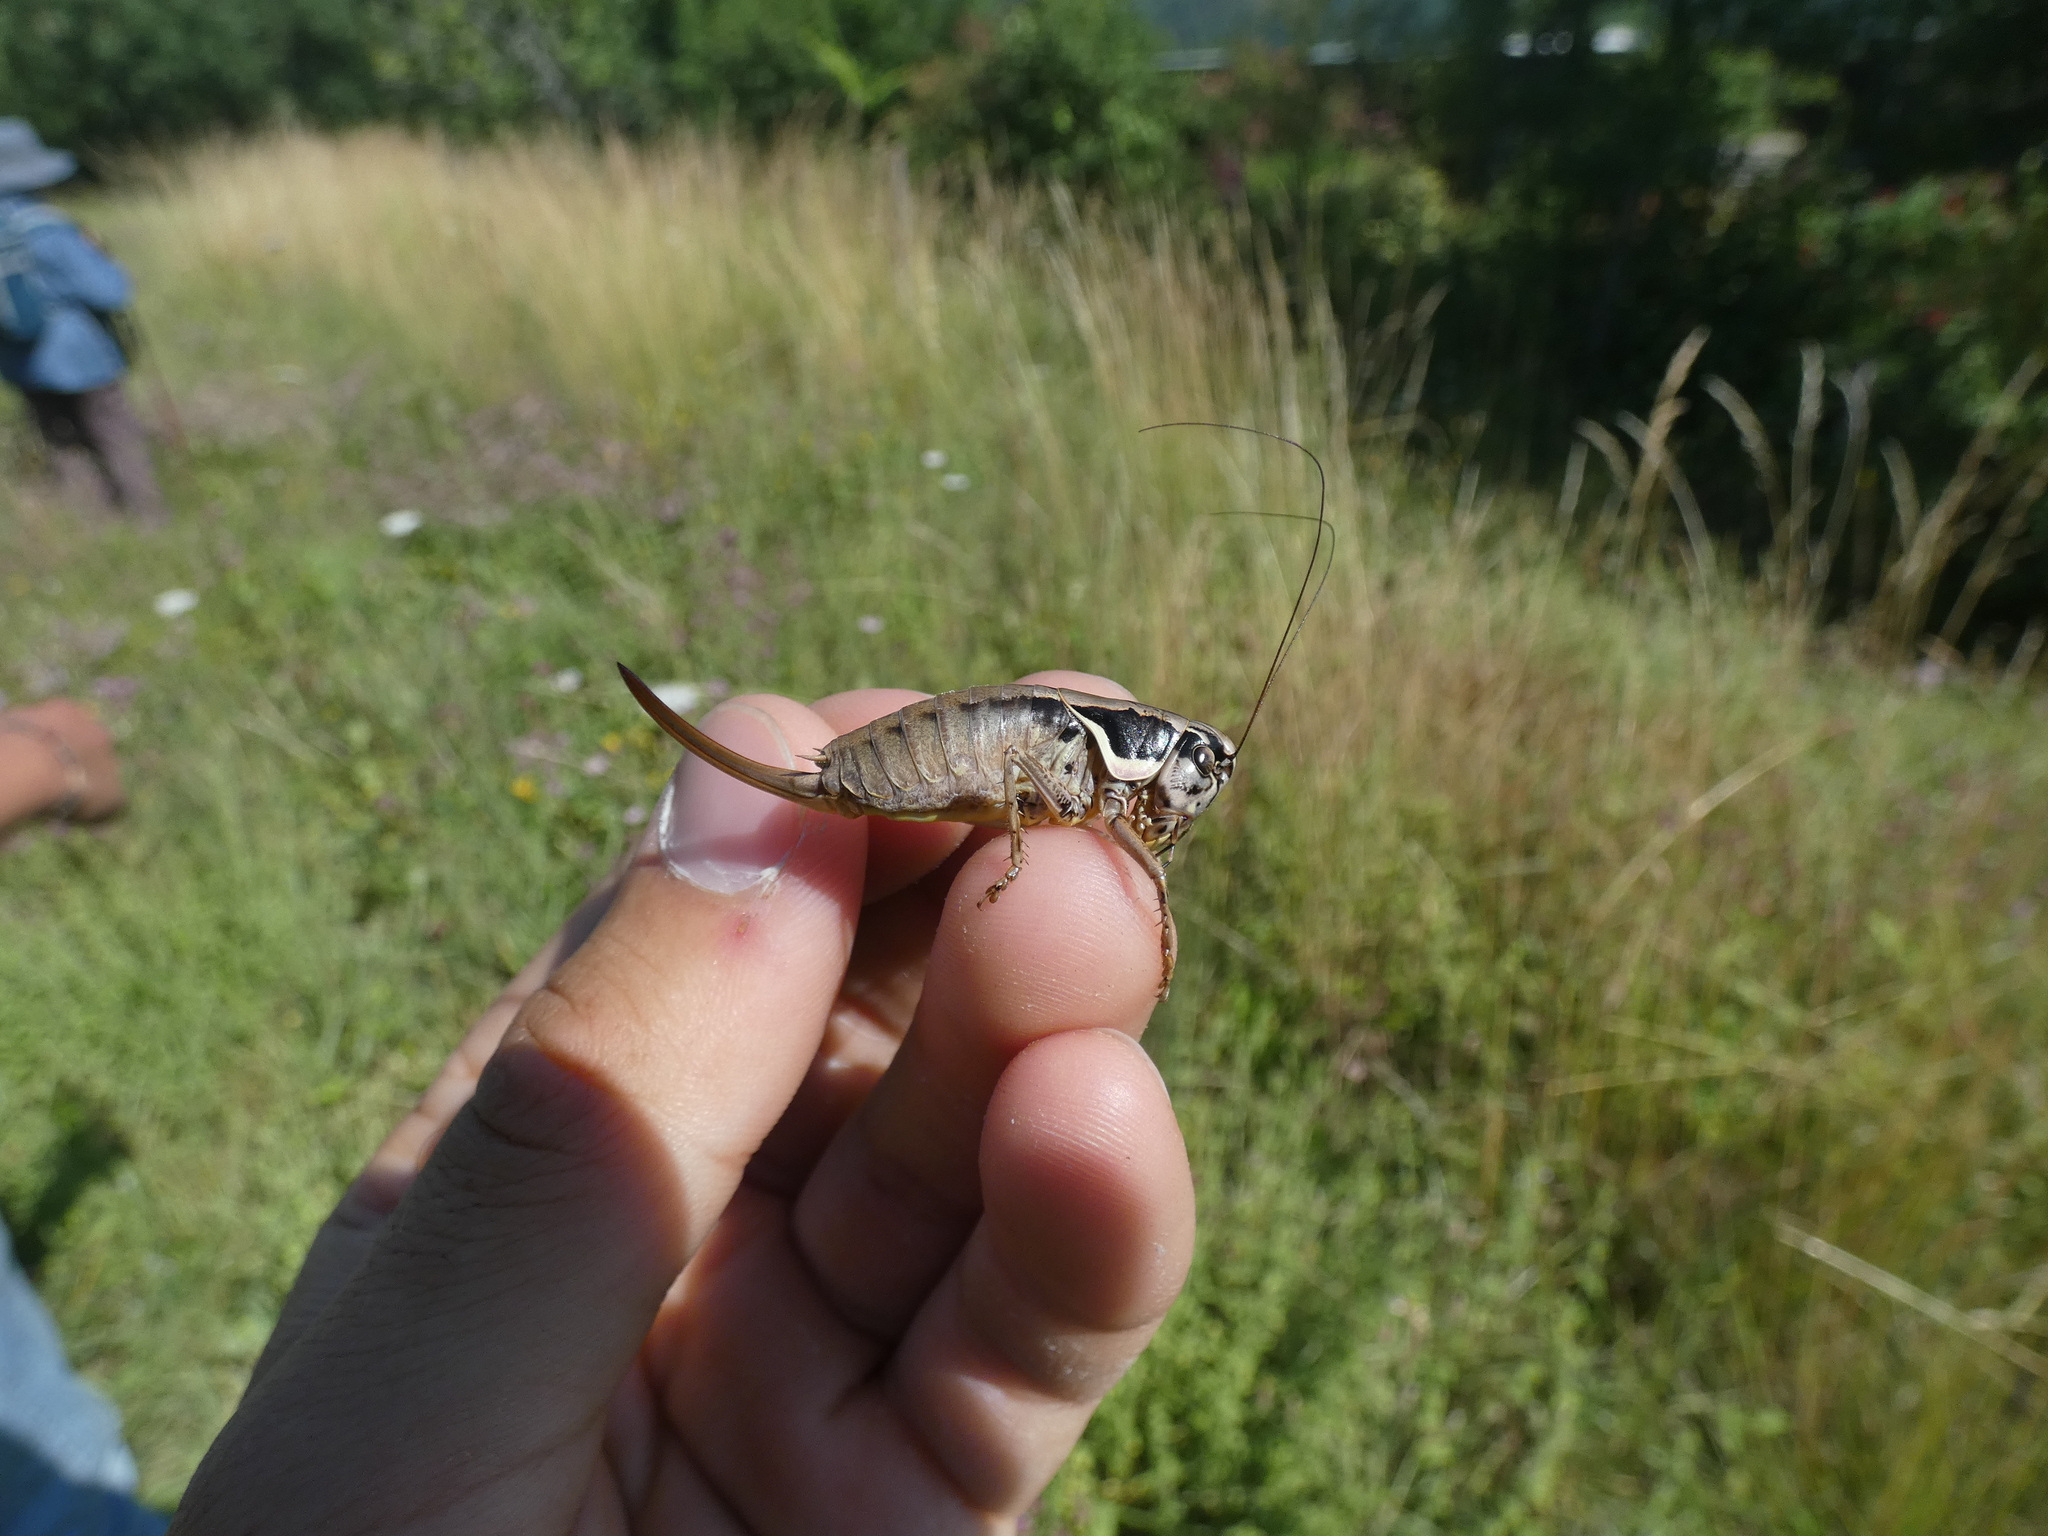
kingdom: Animalia
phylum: Arthropoda
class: Insecta
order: Orthoptera
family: Tettigoniidae
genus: Pholidoptera
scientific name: Pholidoptera femorata
